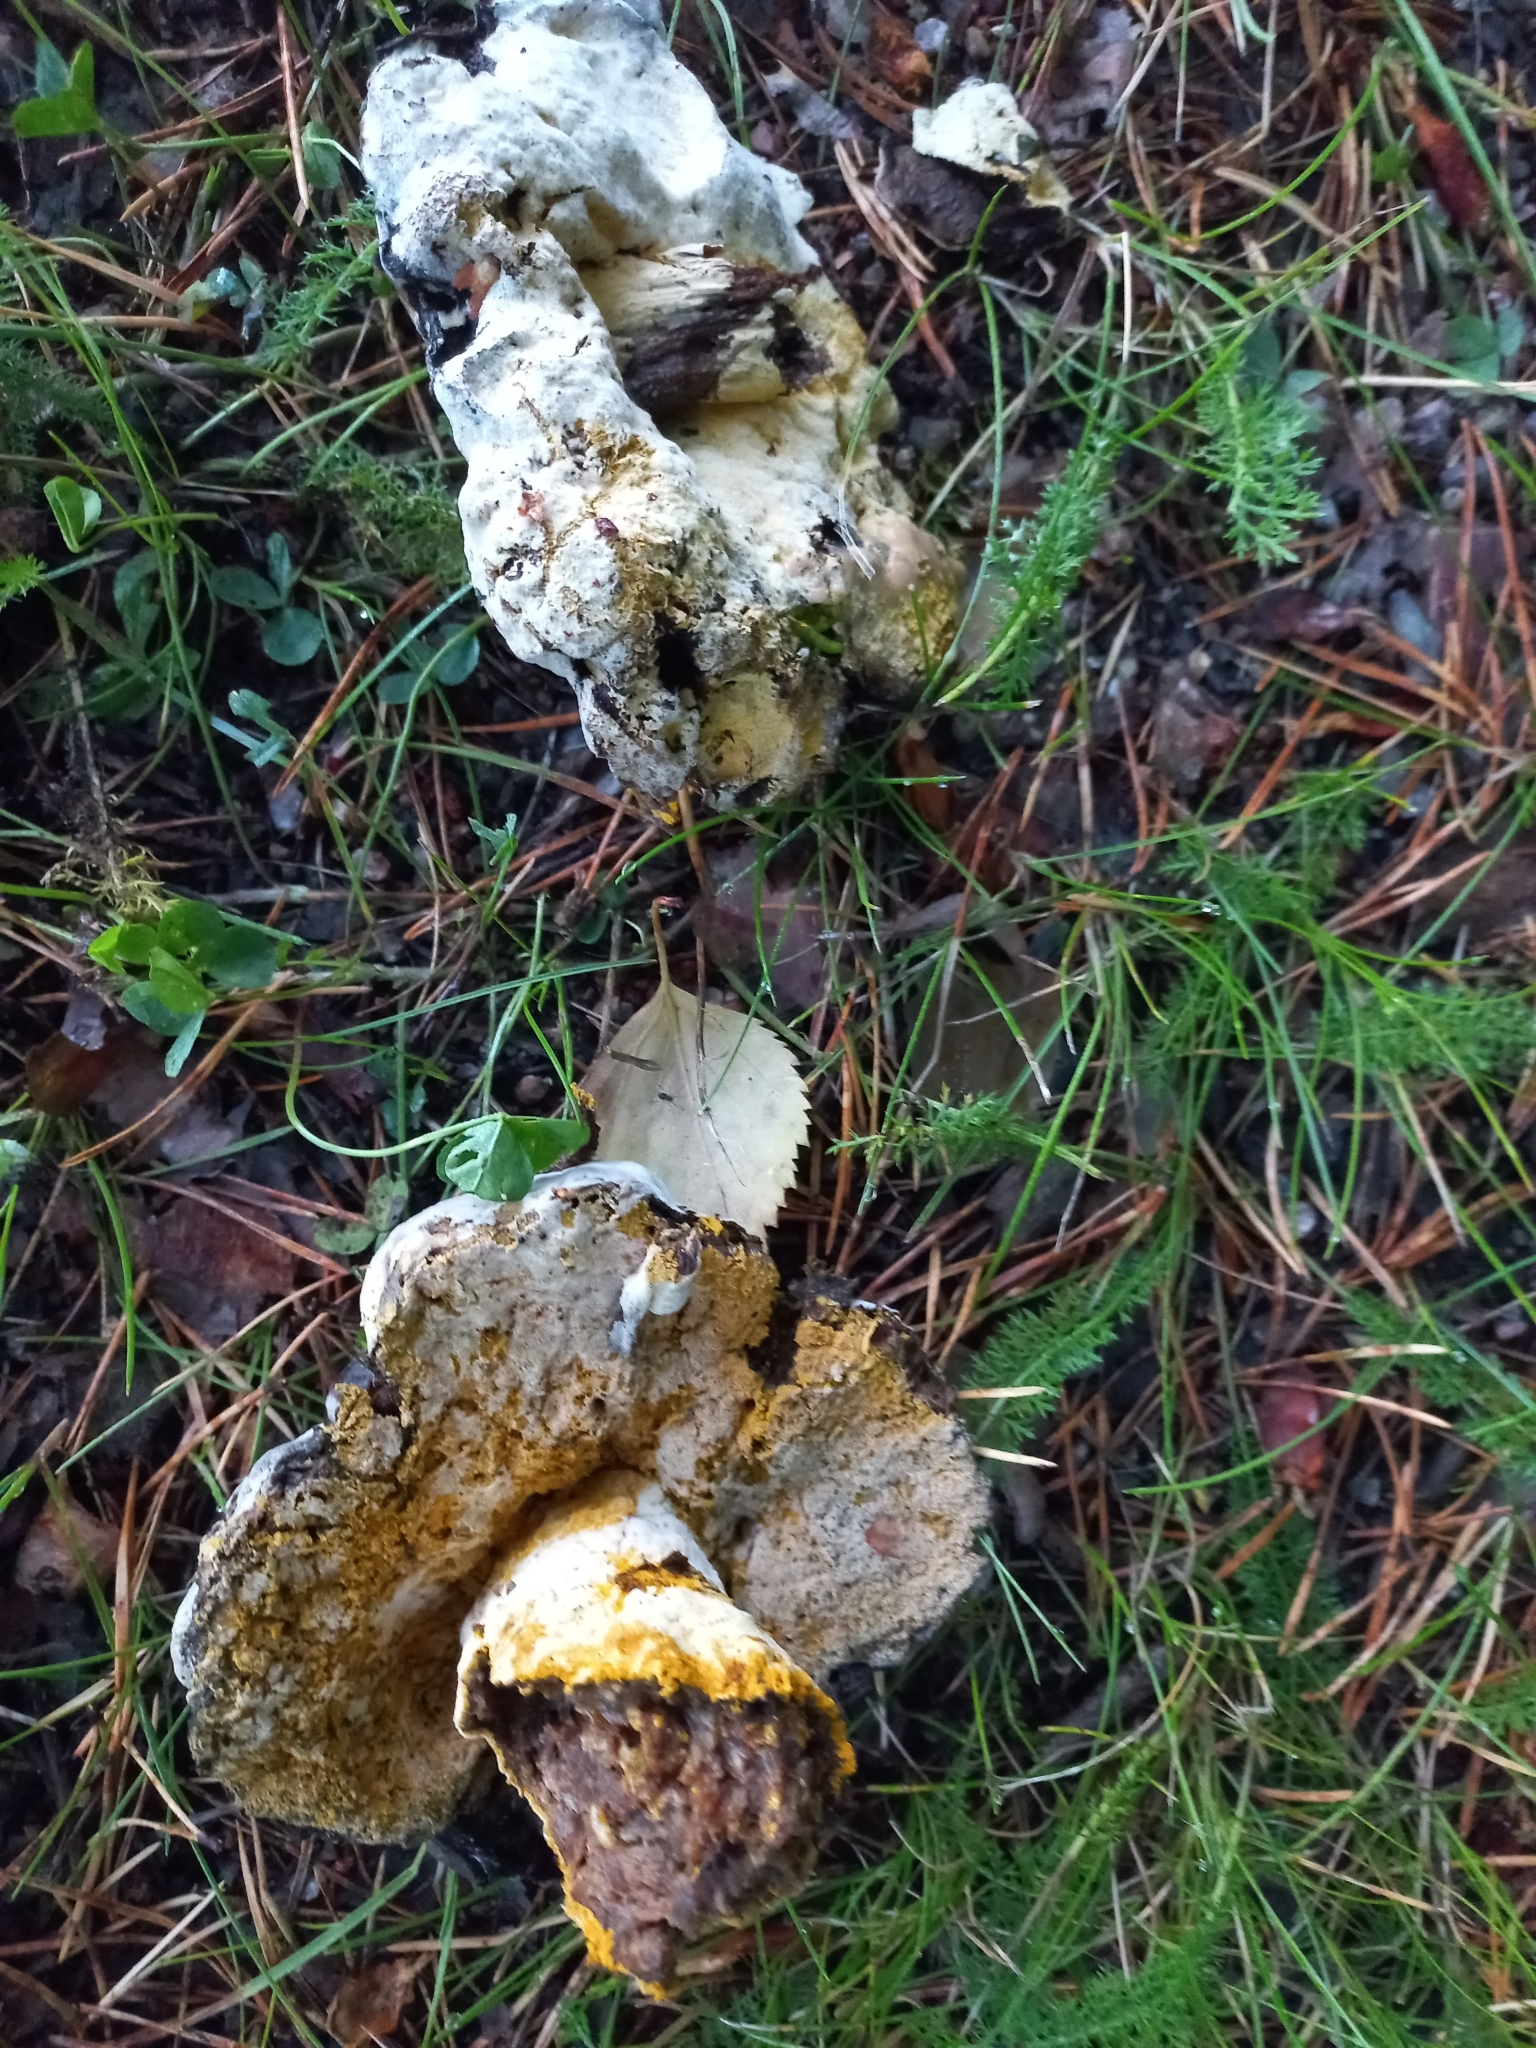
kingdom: Fungi
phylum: Ascomycota
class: Sordariomycetes
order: Hypocreales
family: Hypocreaceae
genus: Hypomyces
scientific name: Hypomyces chrysospermus
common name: Bolete mould
